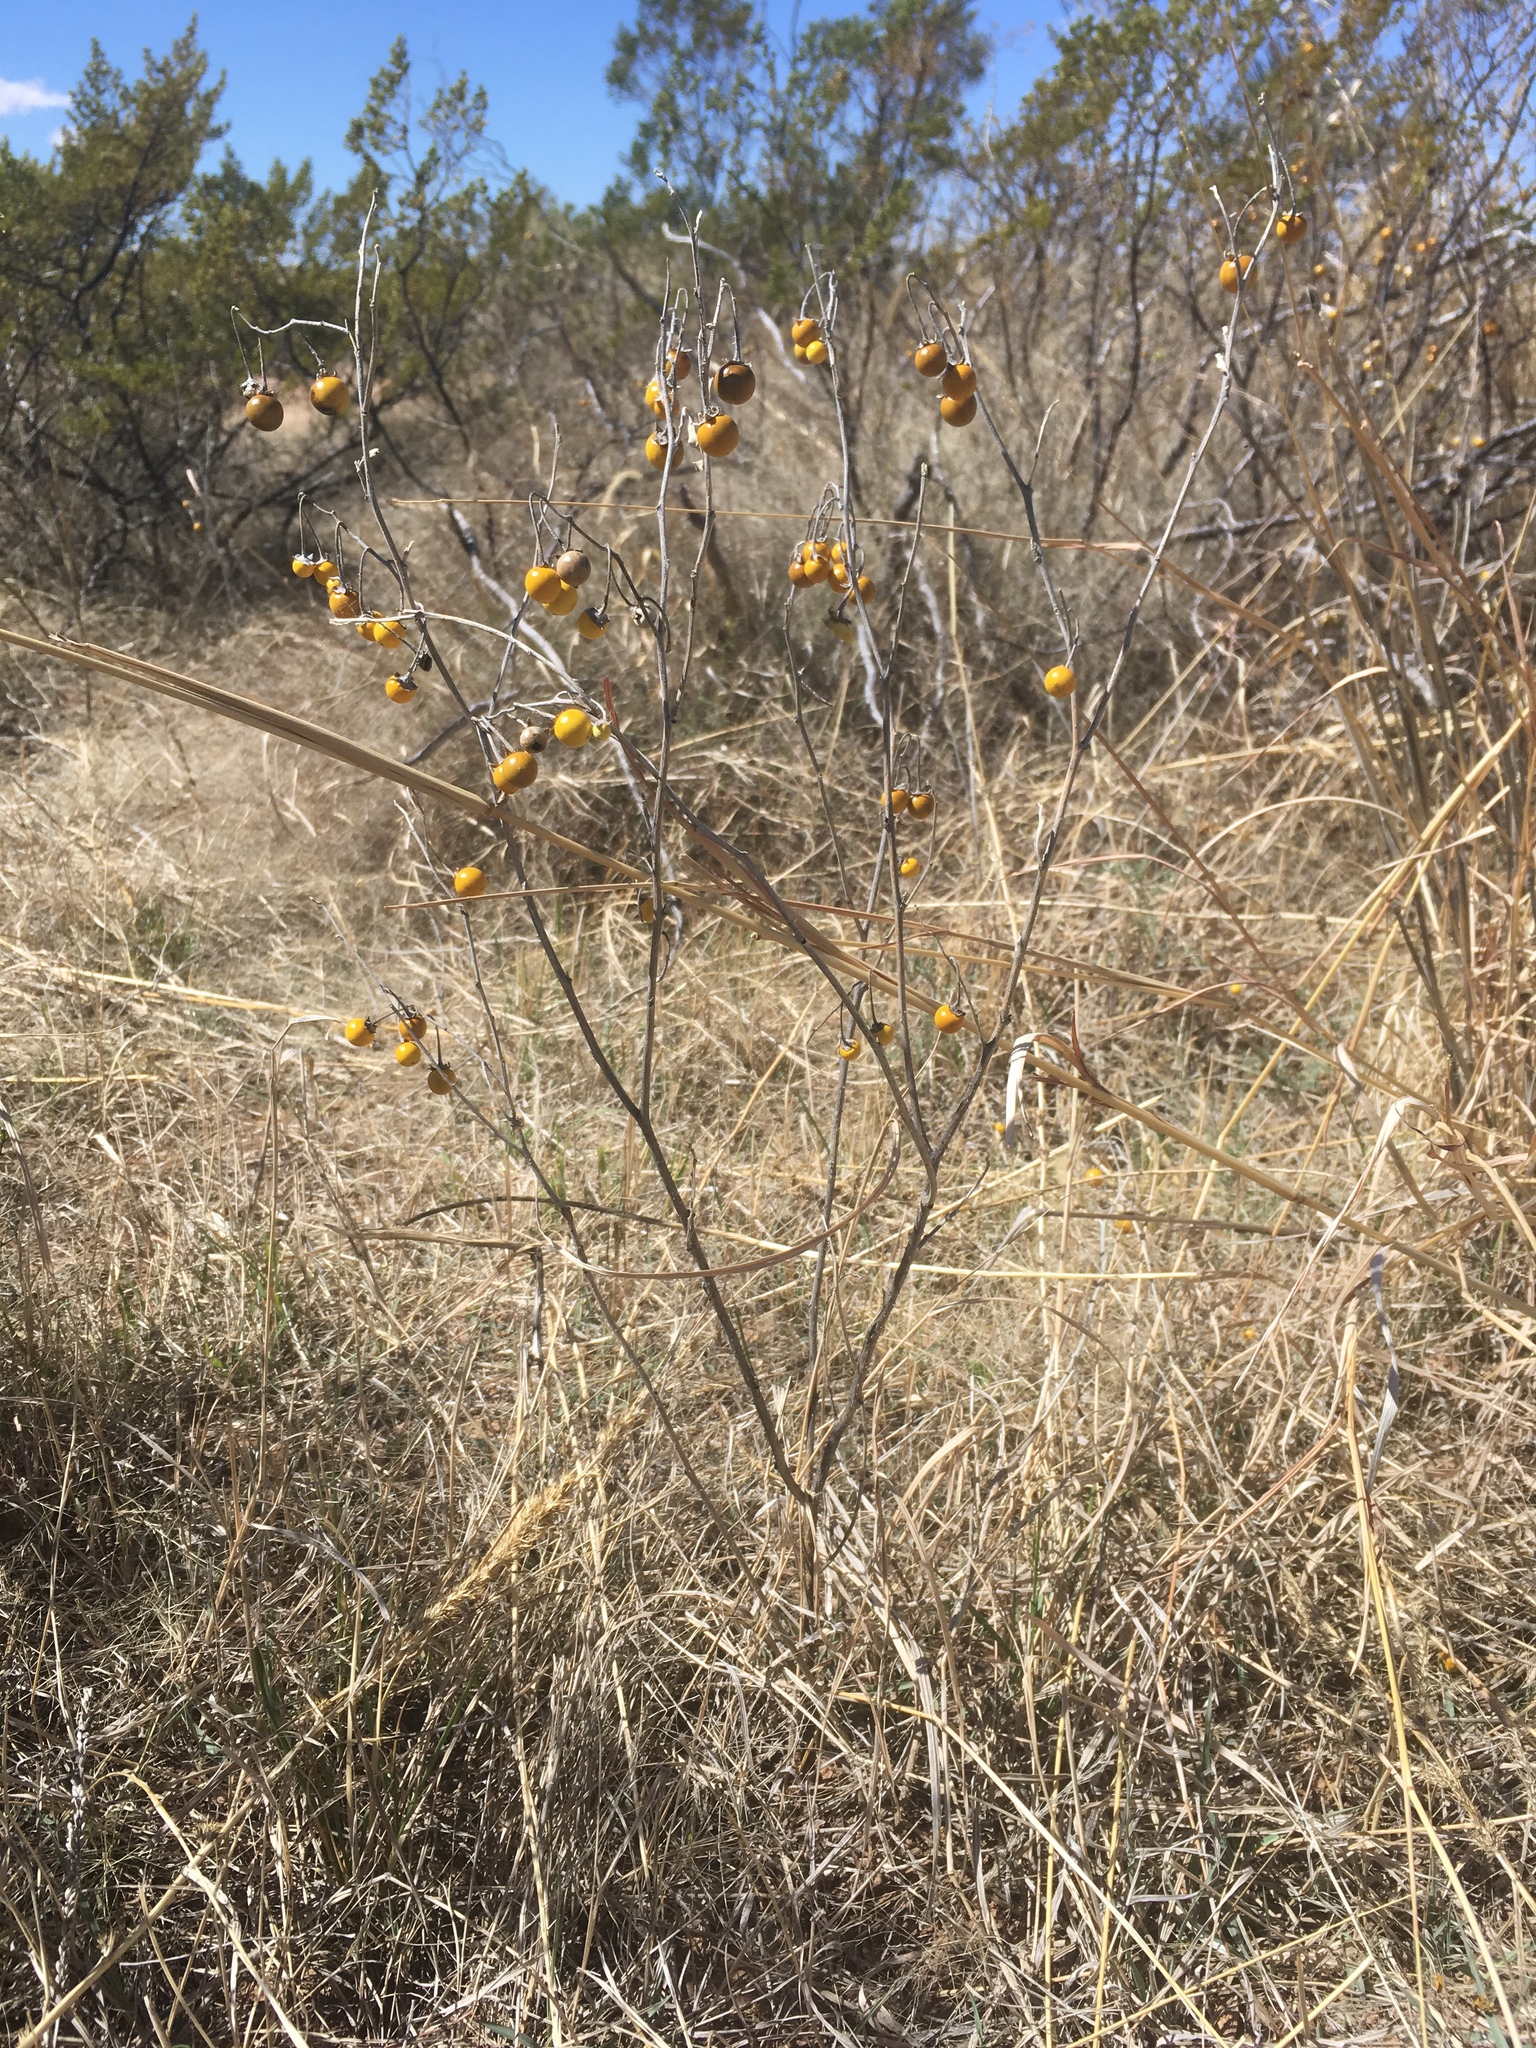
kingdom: Plantae
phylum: Tracheophyta
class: Magnoliopsida
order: Solanales
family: Solanaceae
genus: Solanum
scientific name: Solanum elaeagnifolium
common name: Silverleaf nightshade
